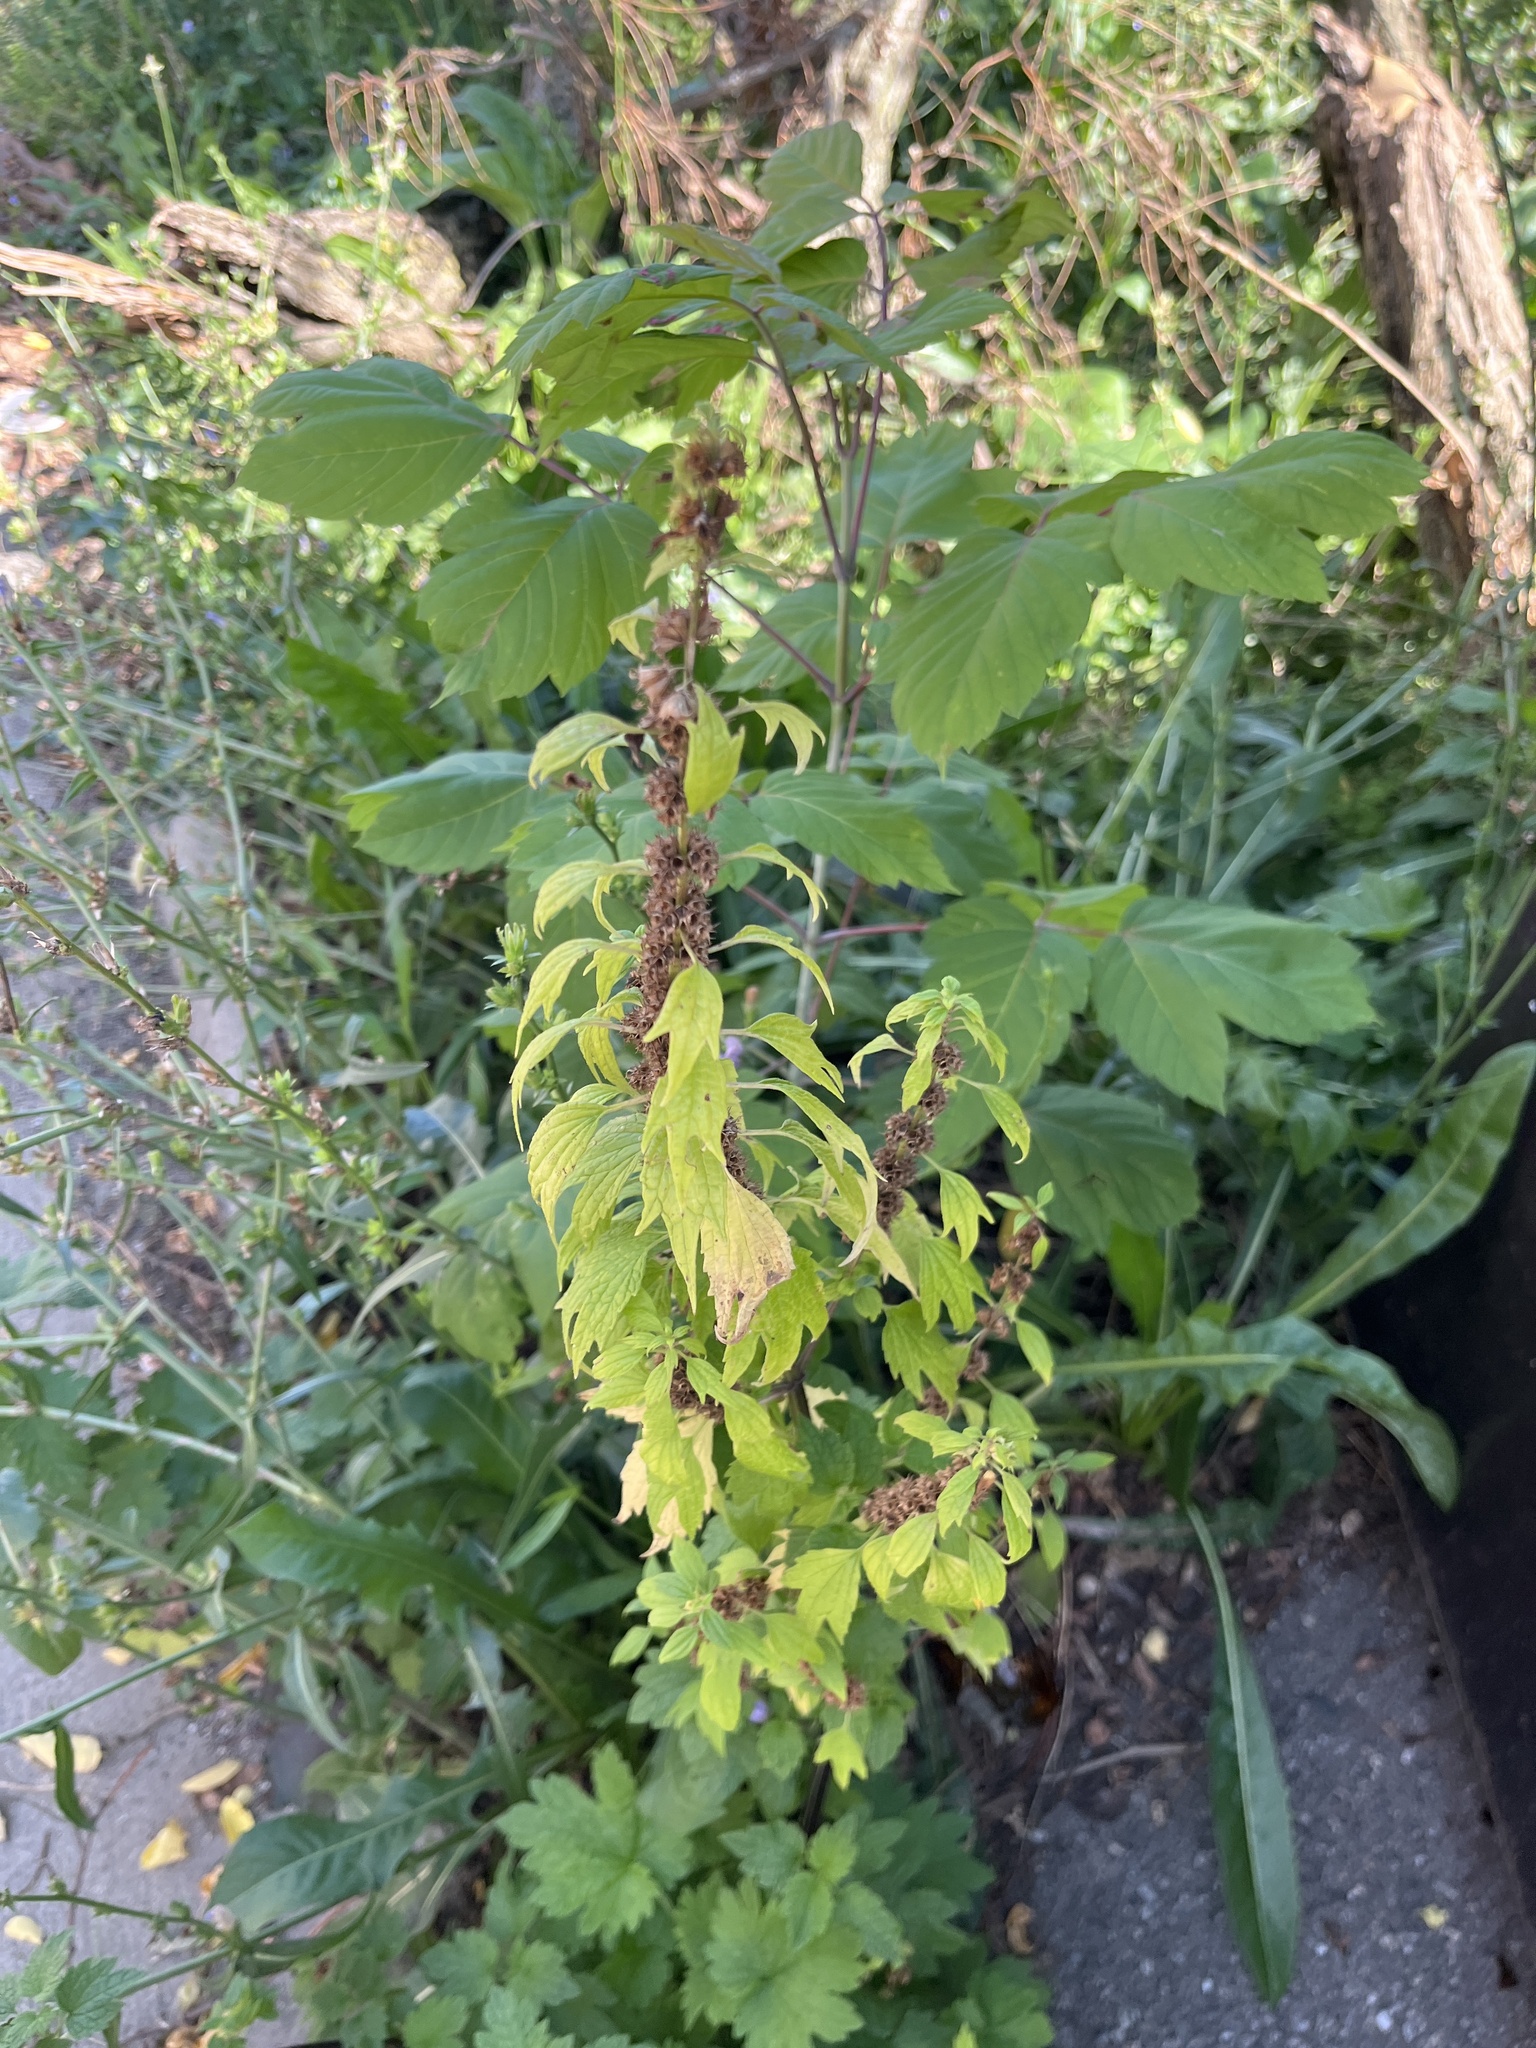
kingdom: Plantae
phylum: Tracheophyta
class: Magnoliopsida
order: Lamiales
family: Lamiaceae
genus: Leonurus
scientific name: Leonurus cardiaca
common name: Motherwort
